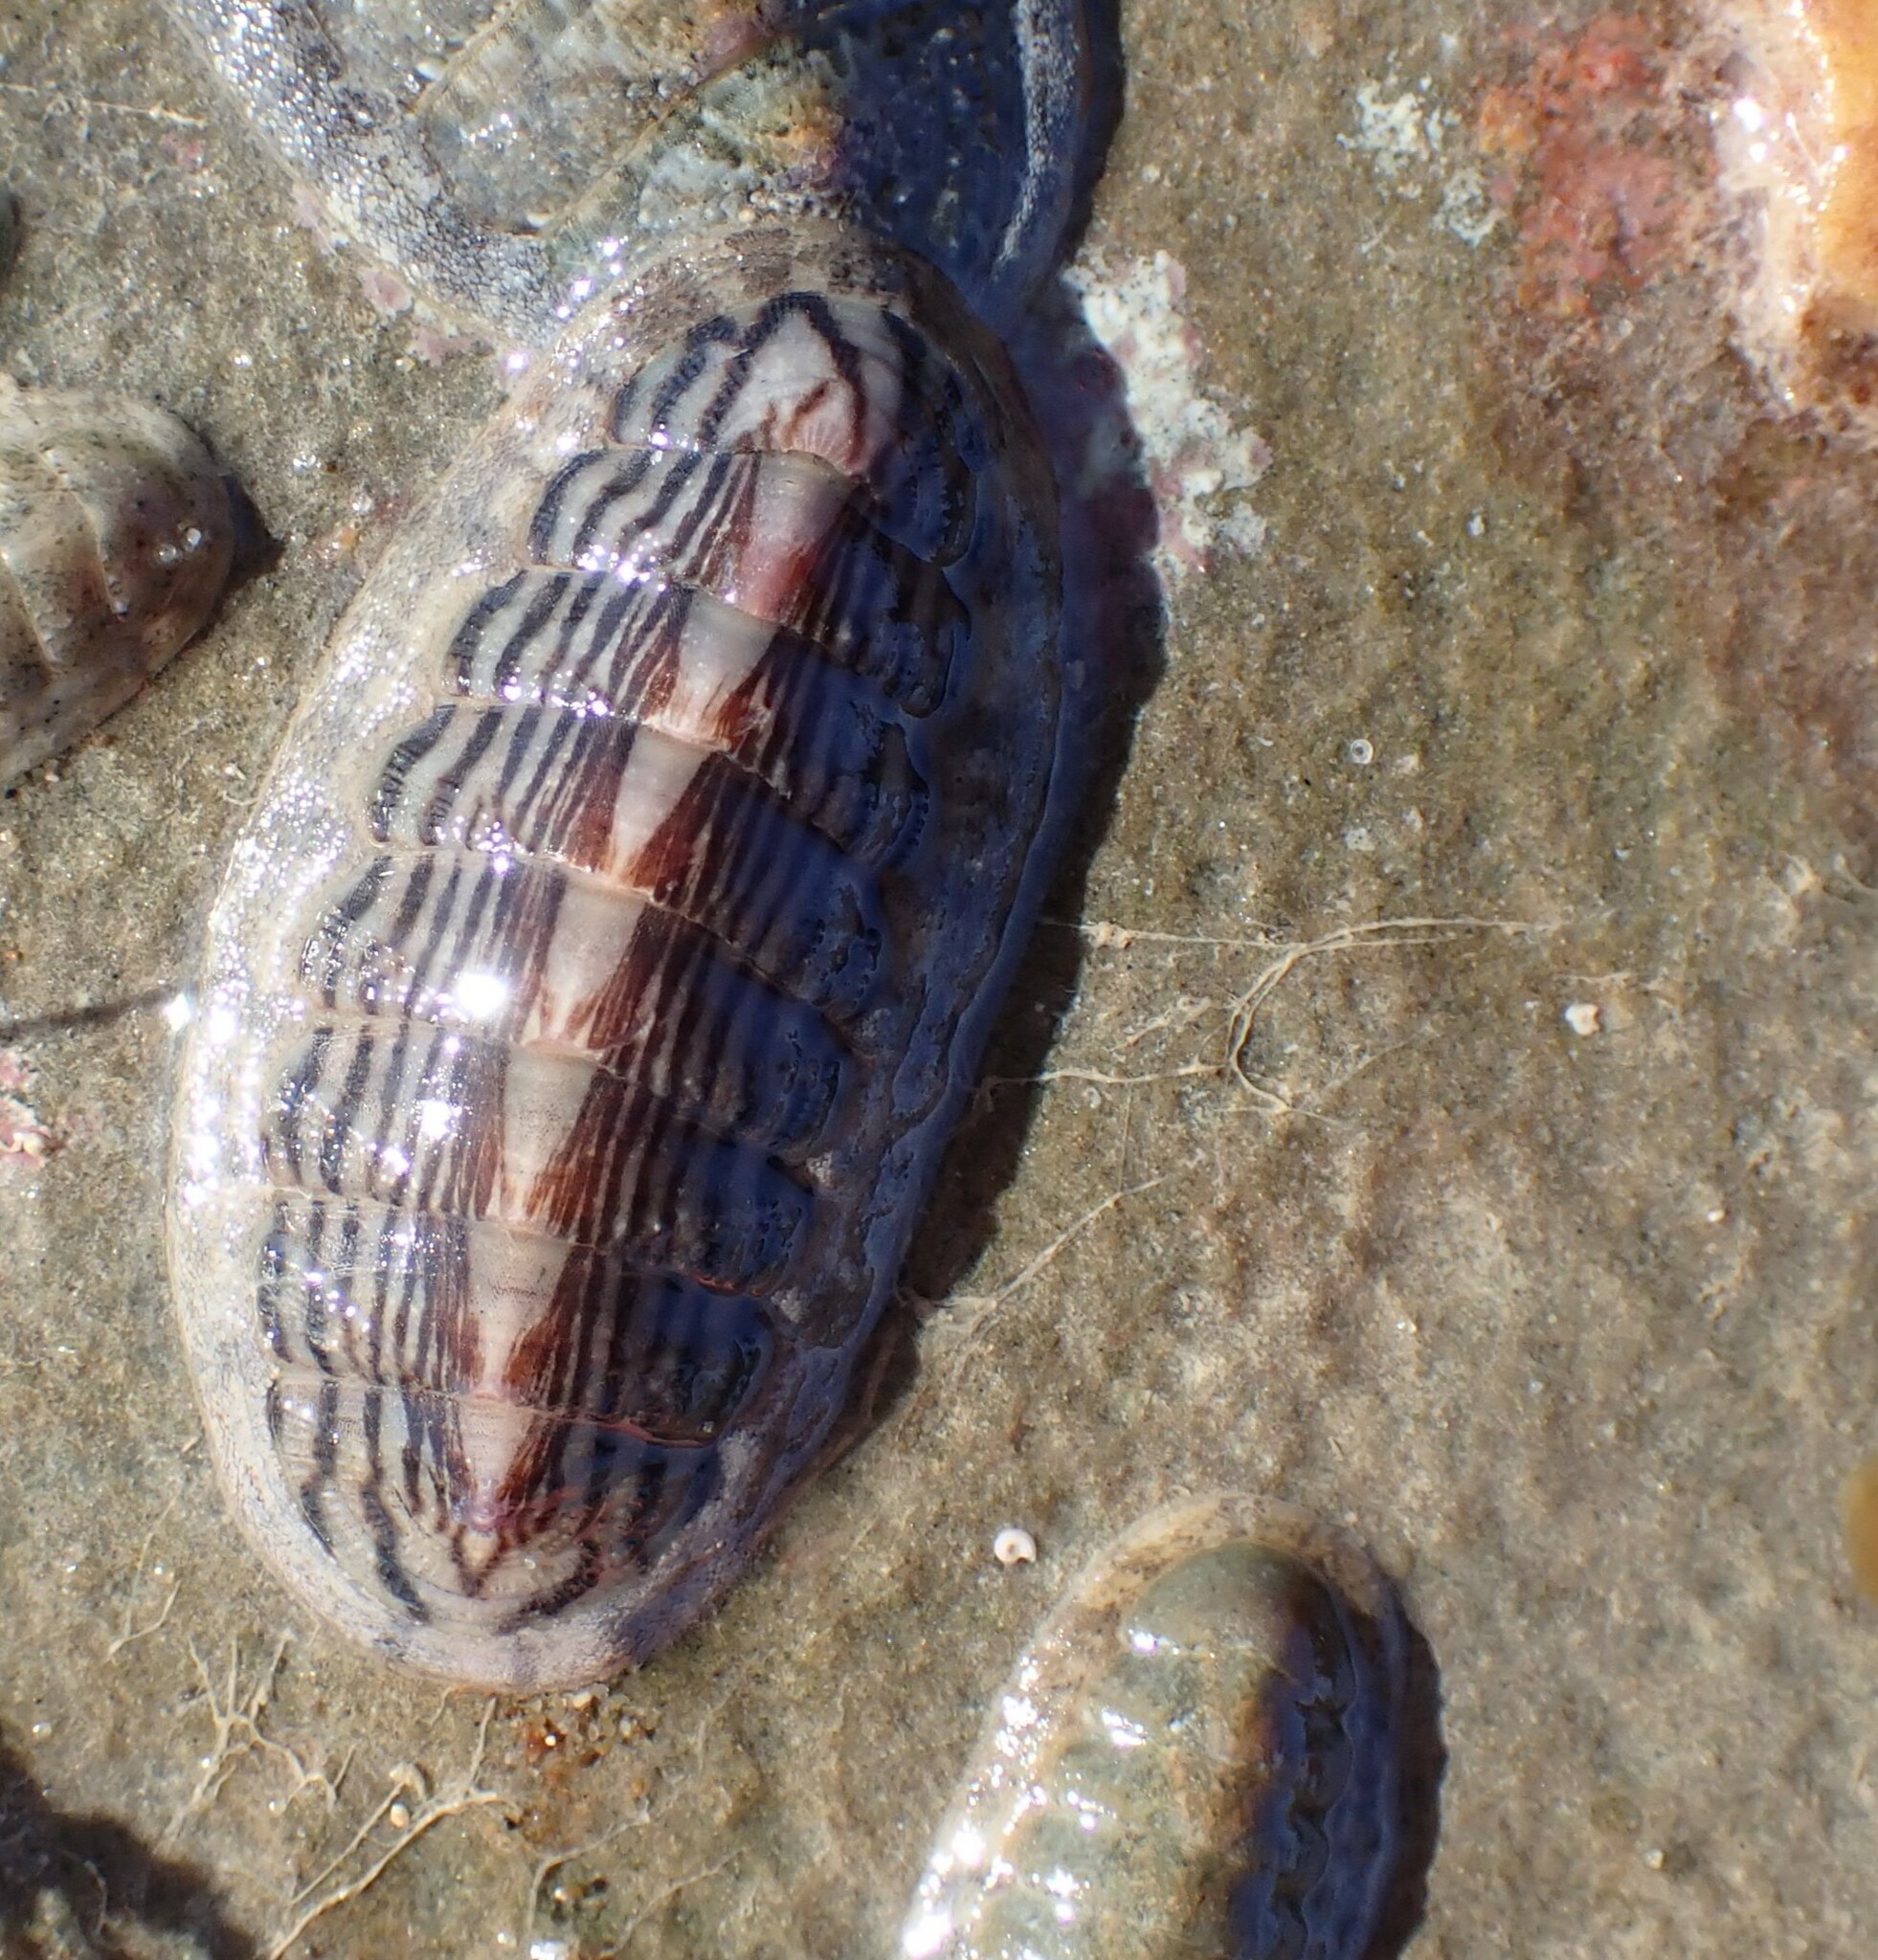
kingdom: Animalia
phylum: Mollusca
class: Polyplacophora
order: Chitonida
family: Ischnochitonidae
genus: Ischnochiton
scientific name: Ischnochiton maorianus
